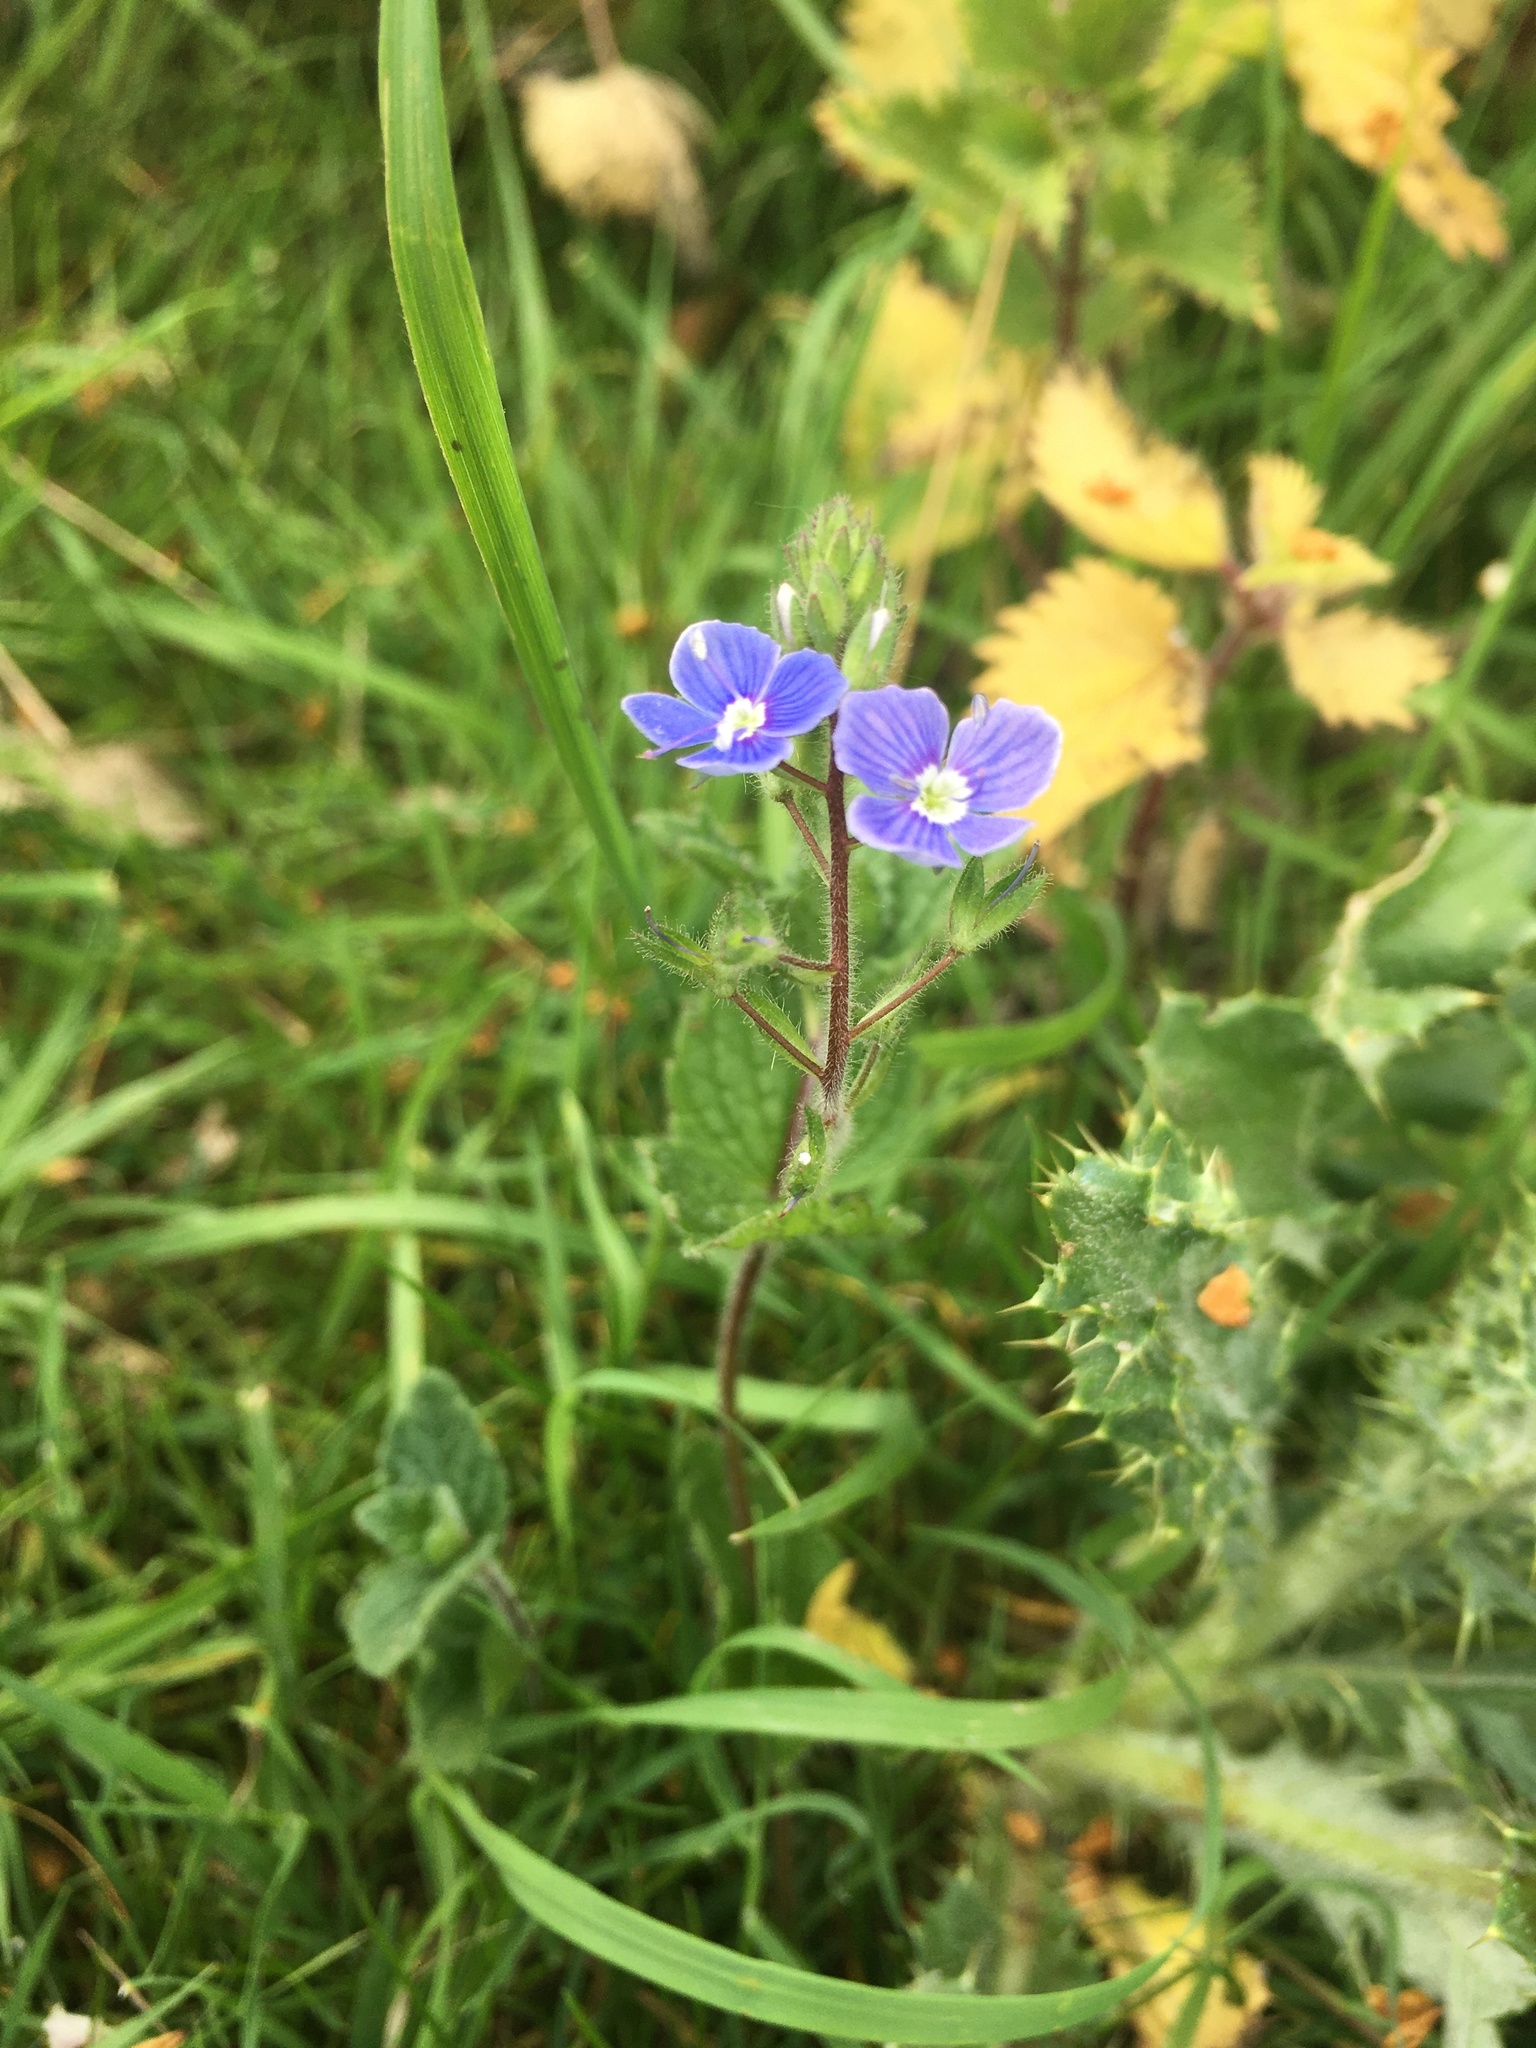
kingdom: Plantae
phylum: Tracheophyta
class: Magnoliopsida
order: Lamiales
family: Plantaginaceae
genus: Veronica
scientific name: Veronica chamaedrys
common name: Germander speedwell
